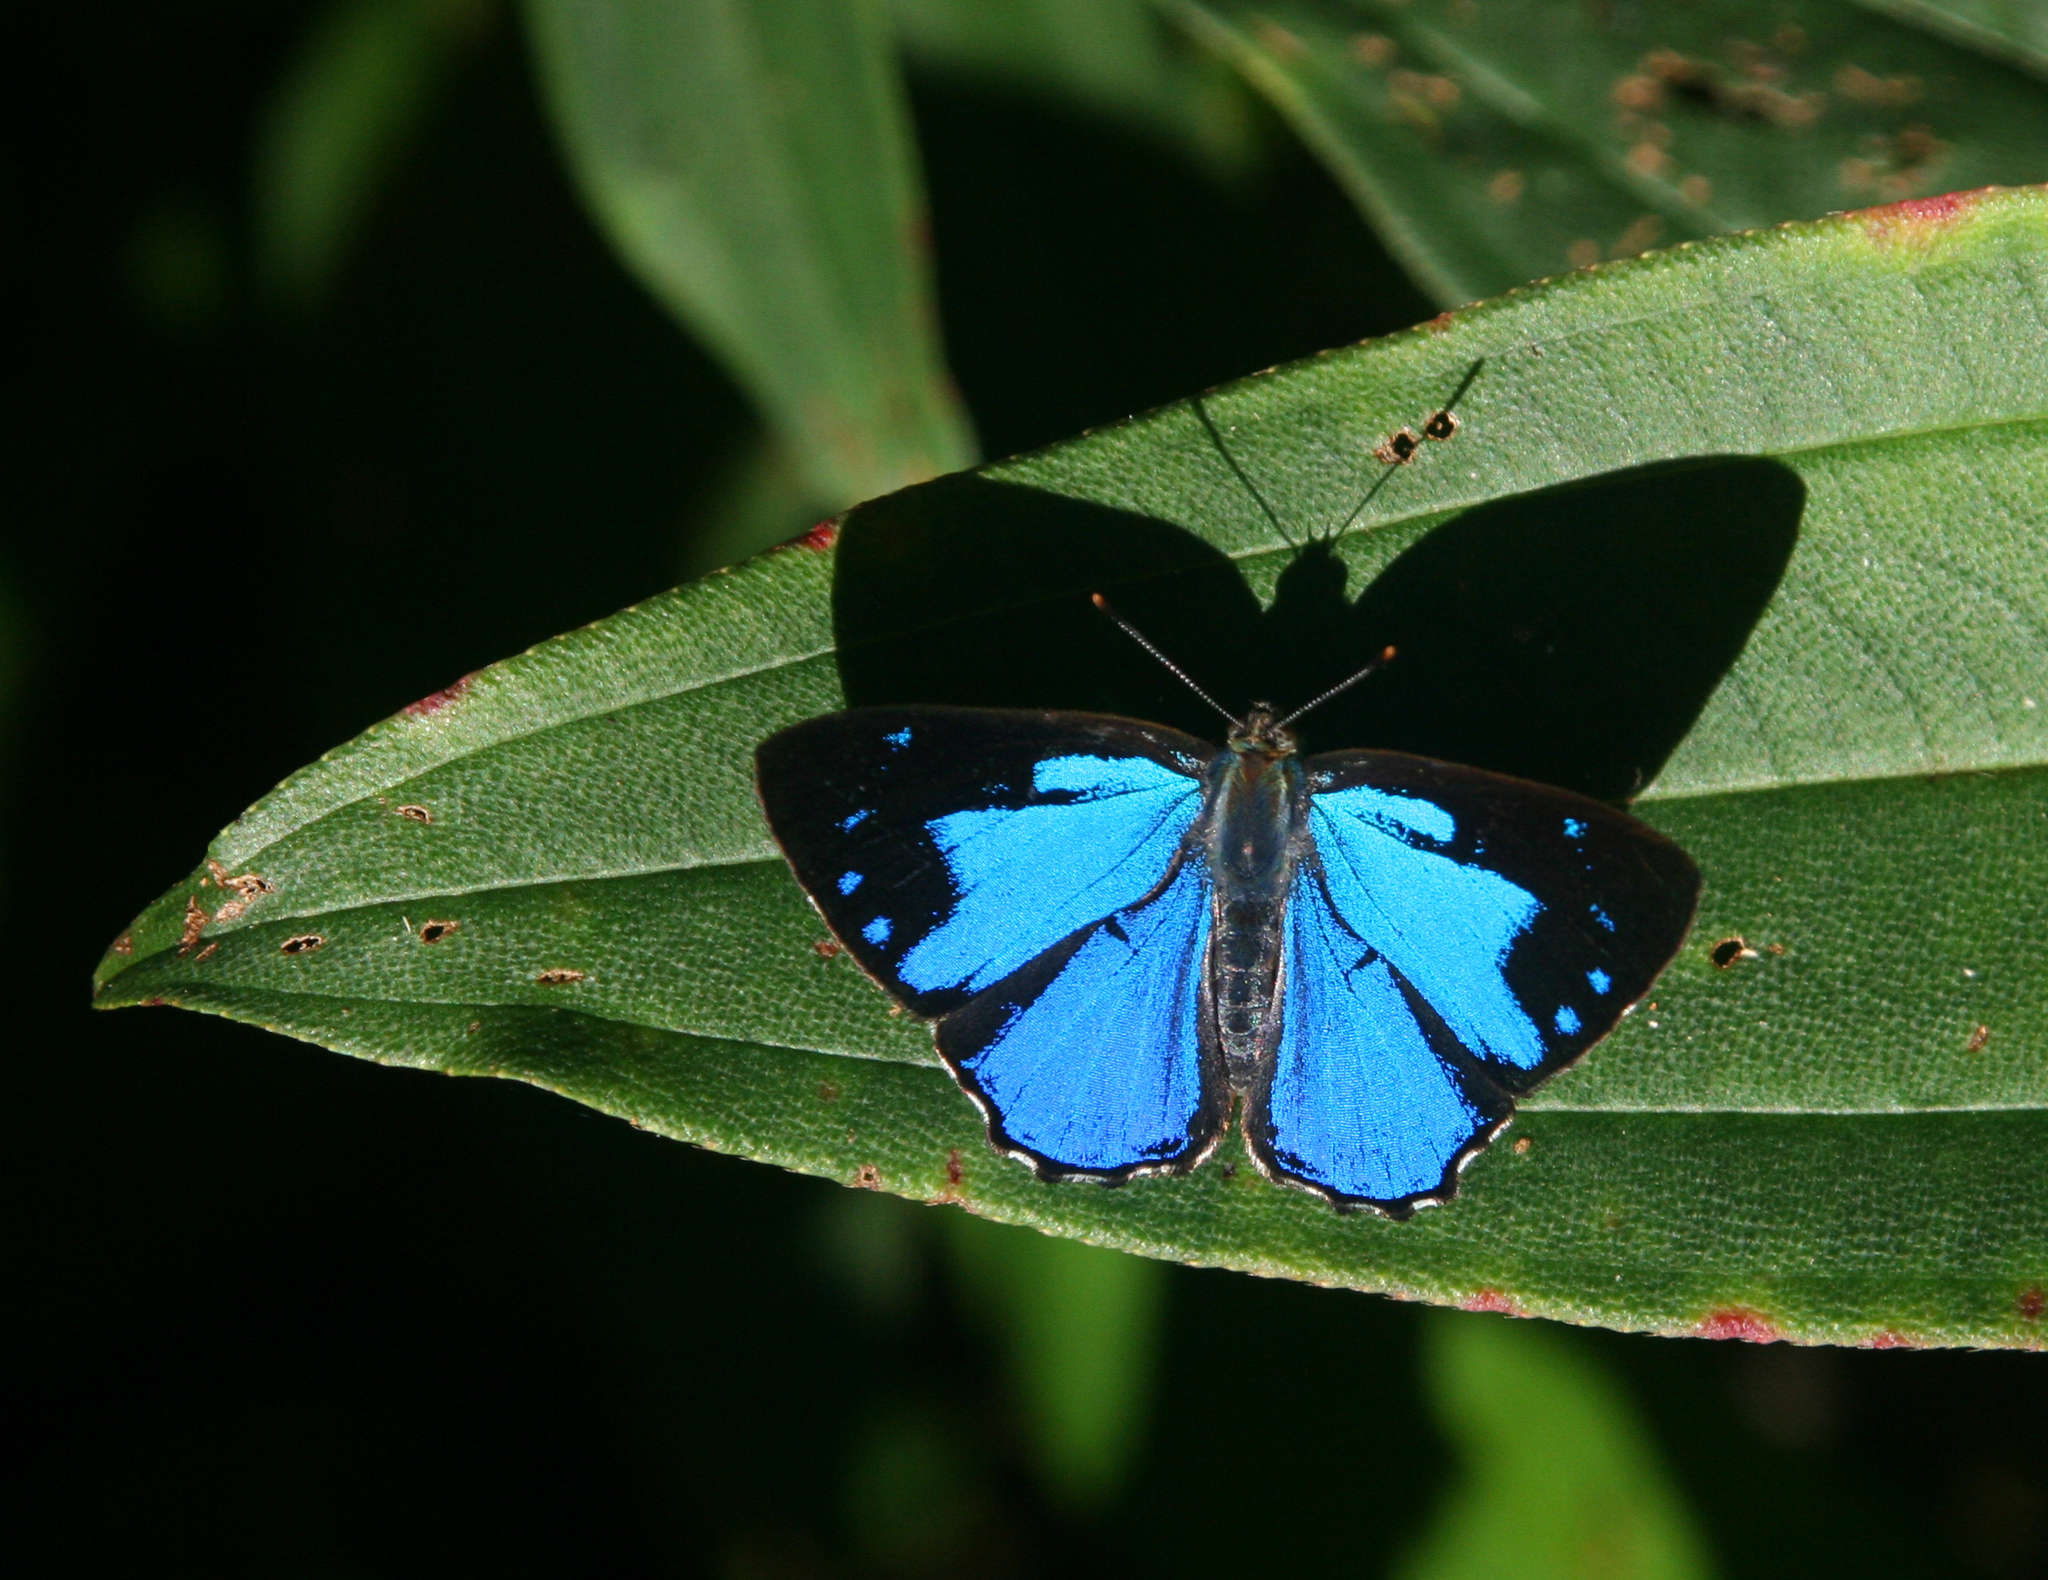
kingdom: Animalia
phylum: Arthropoda
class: Insecta
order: Lepidoptera
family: Lycaenidae
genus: Poritia
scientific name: Poritia hewitsoni
